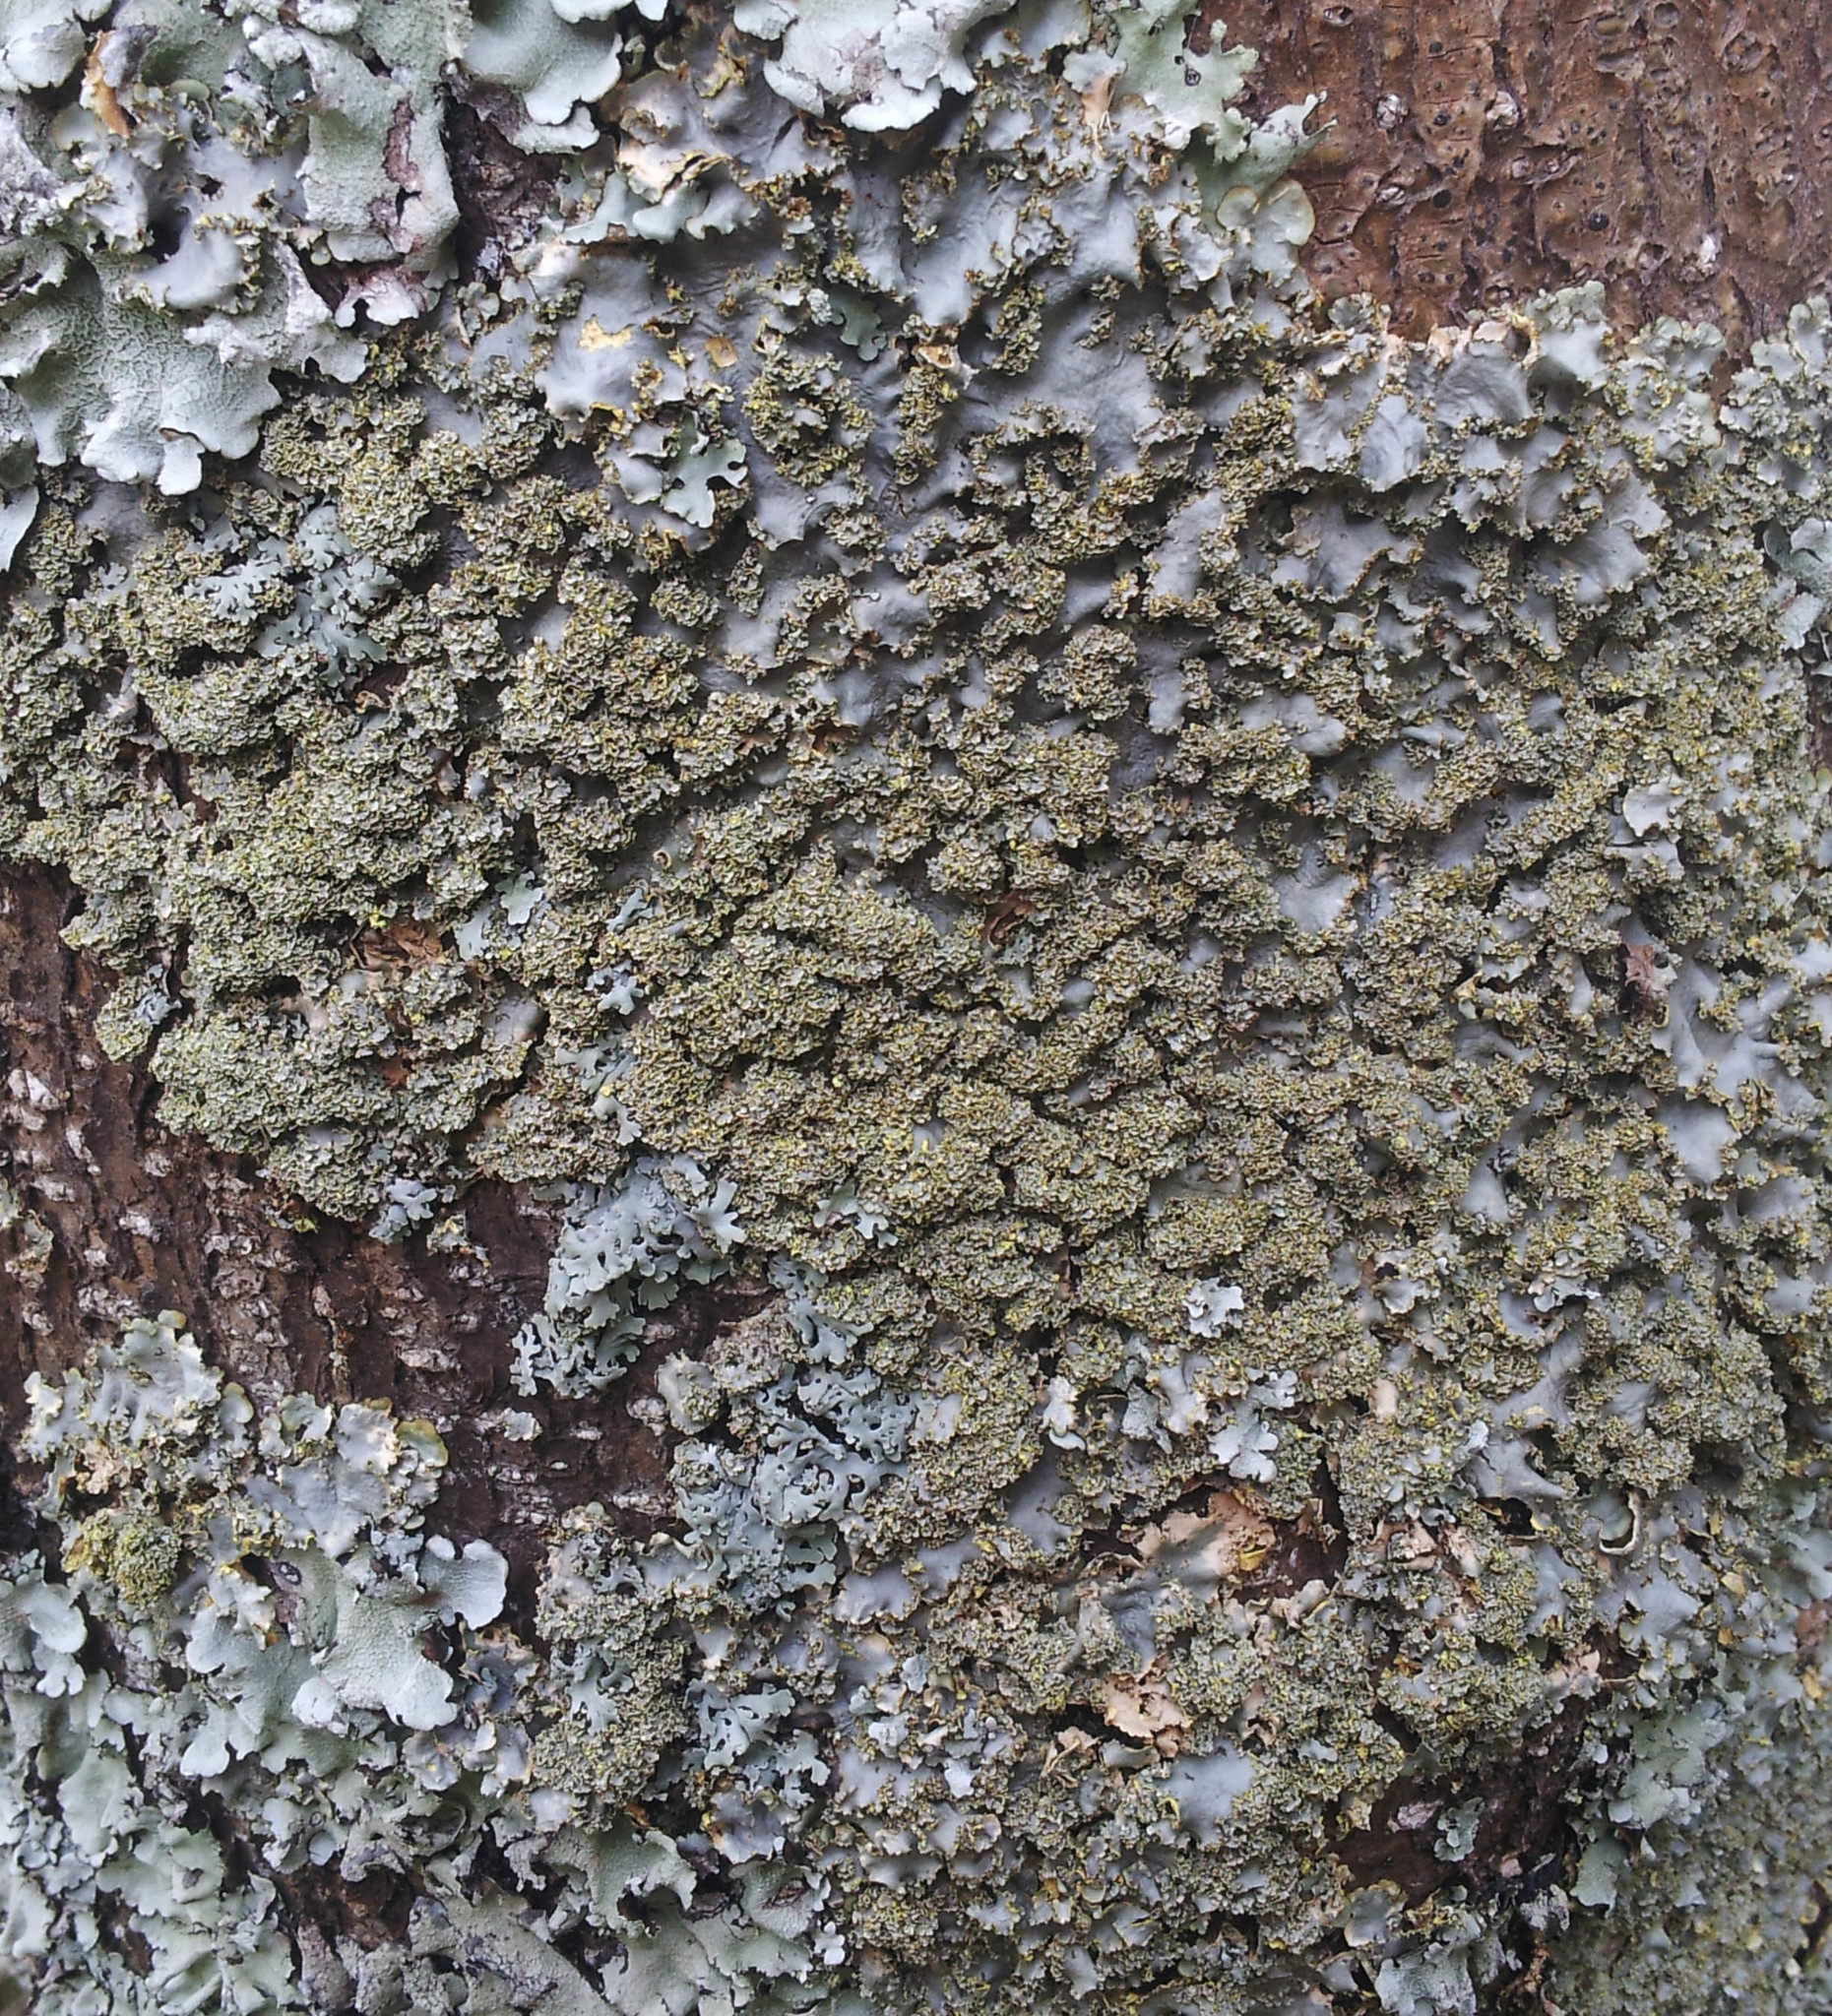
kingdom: Fungi
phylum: Ascomycota
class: Lecanoromycetes
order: Peltigerales
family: Lobariaceae
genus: Podostictina
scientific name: Podostictina pickeringii
